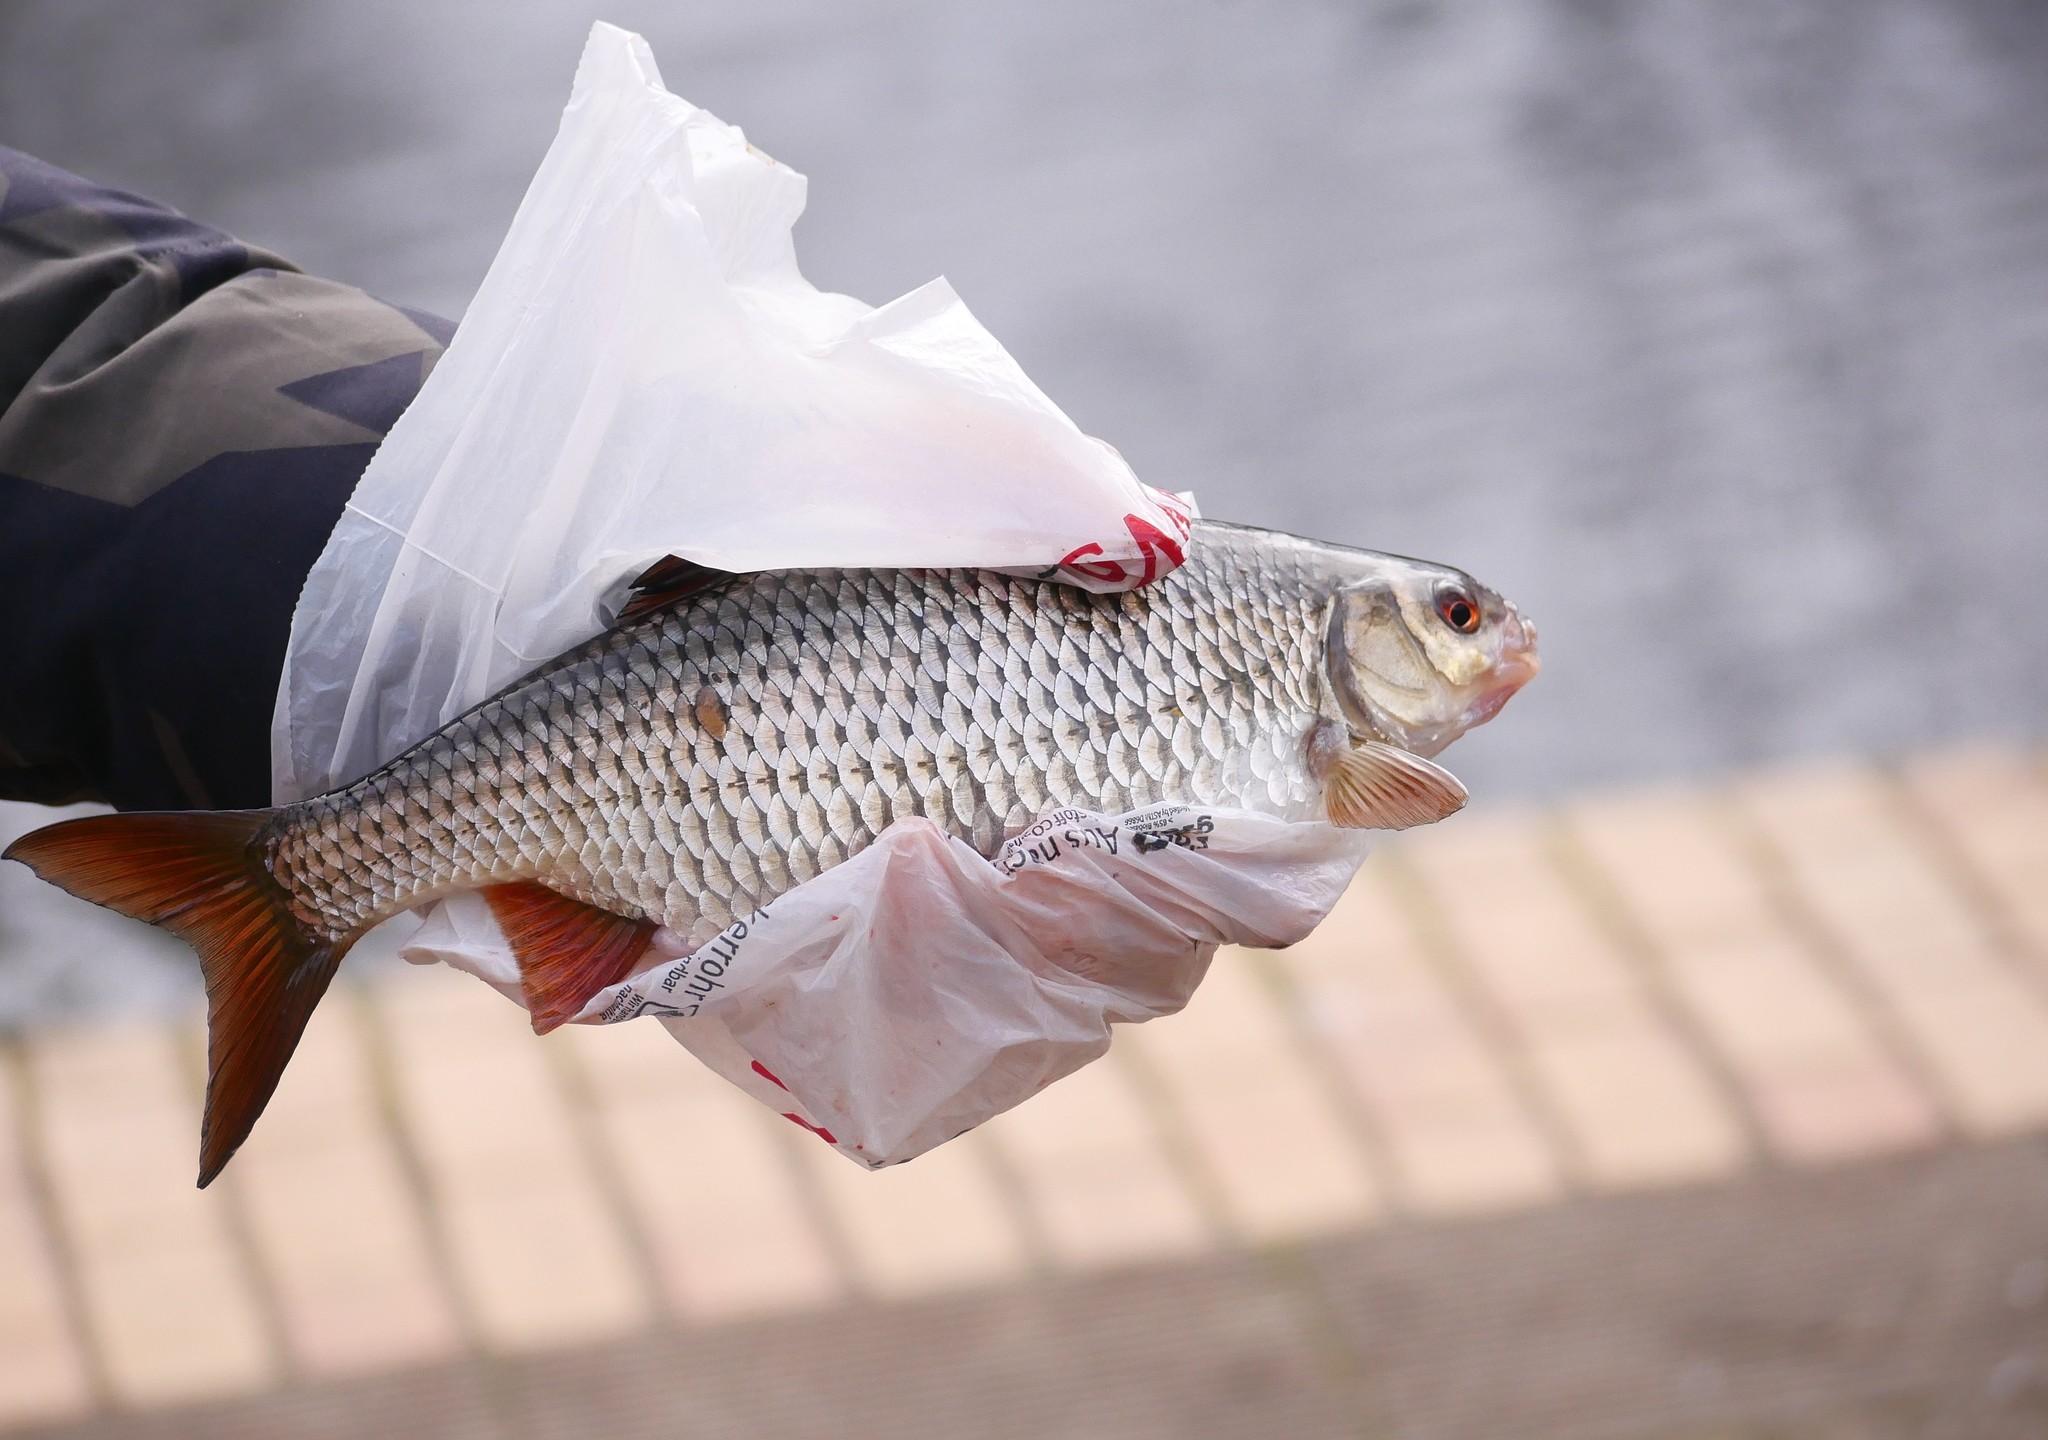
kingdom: Animalia
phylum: Chordata
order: Cypriniformes
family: Cyprinidae
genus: Scardinius
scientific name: Scardinius erythrophthalmus
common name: Rudd
